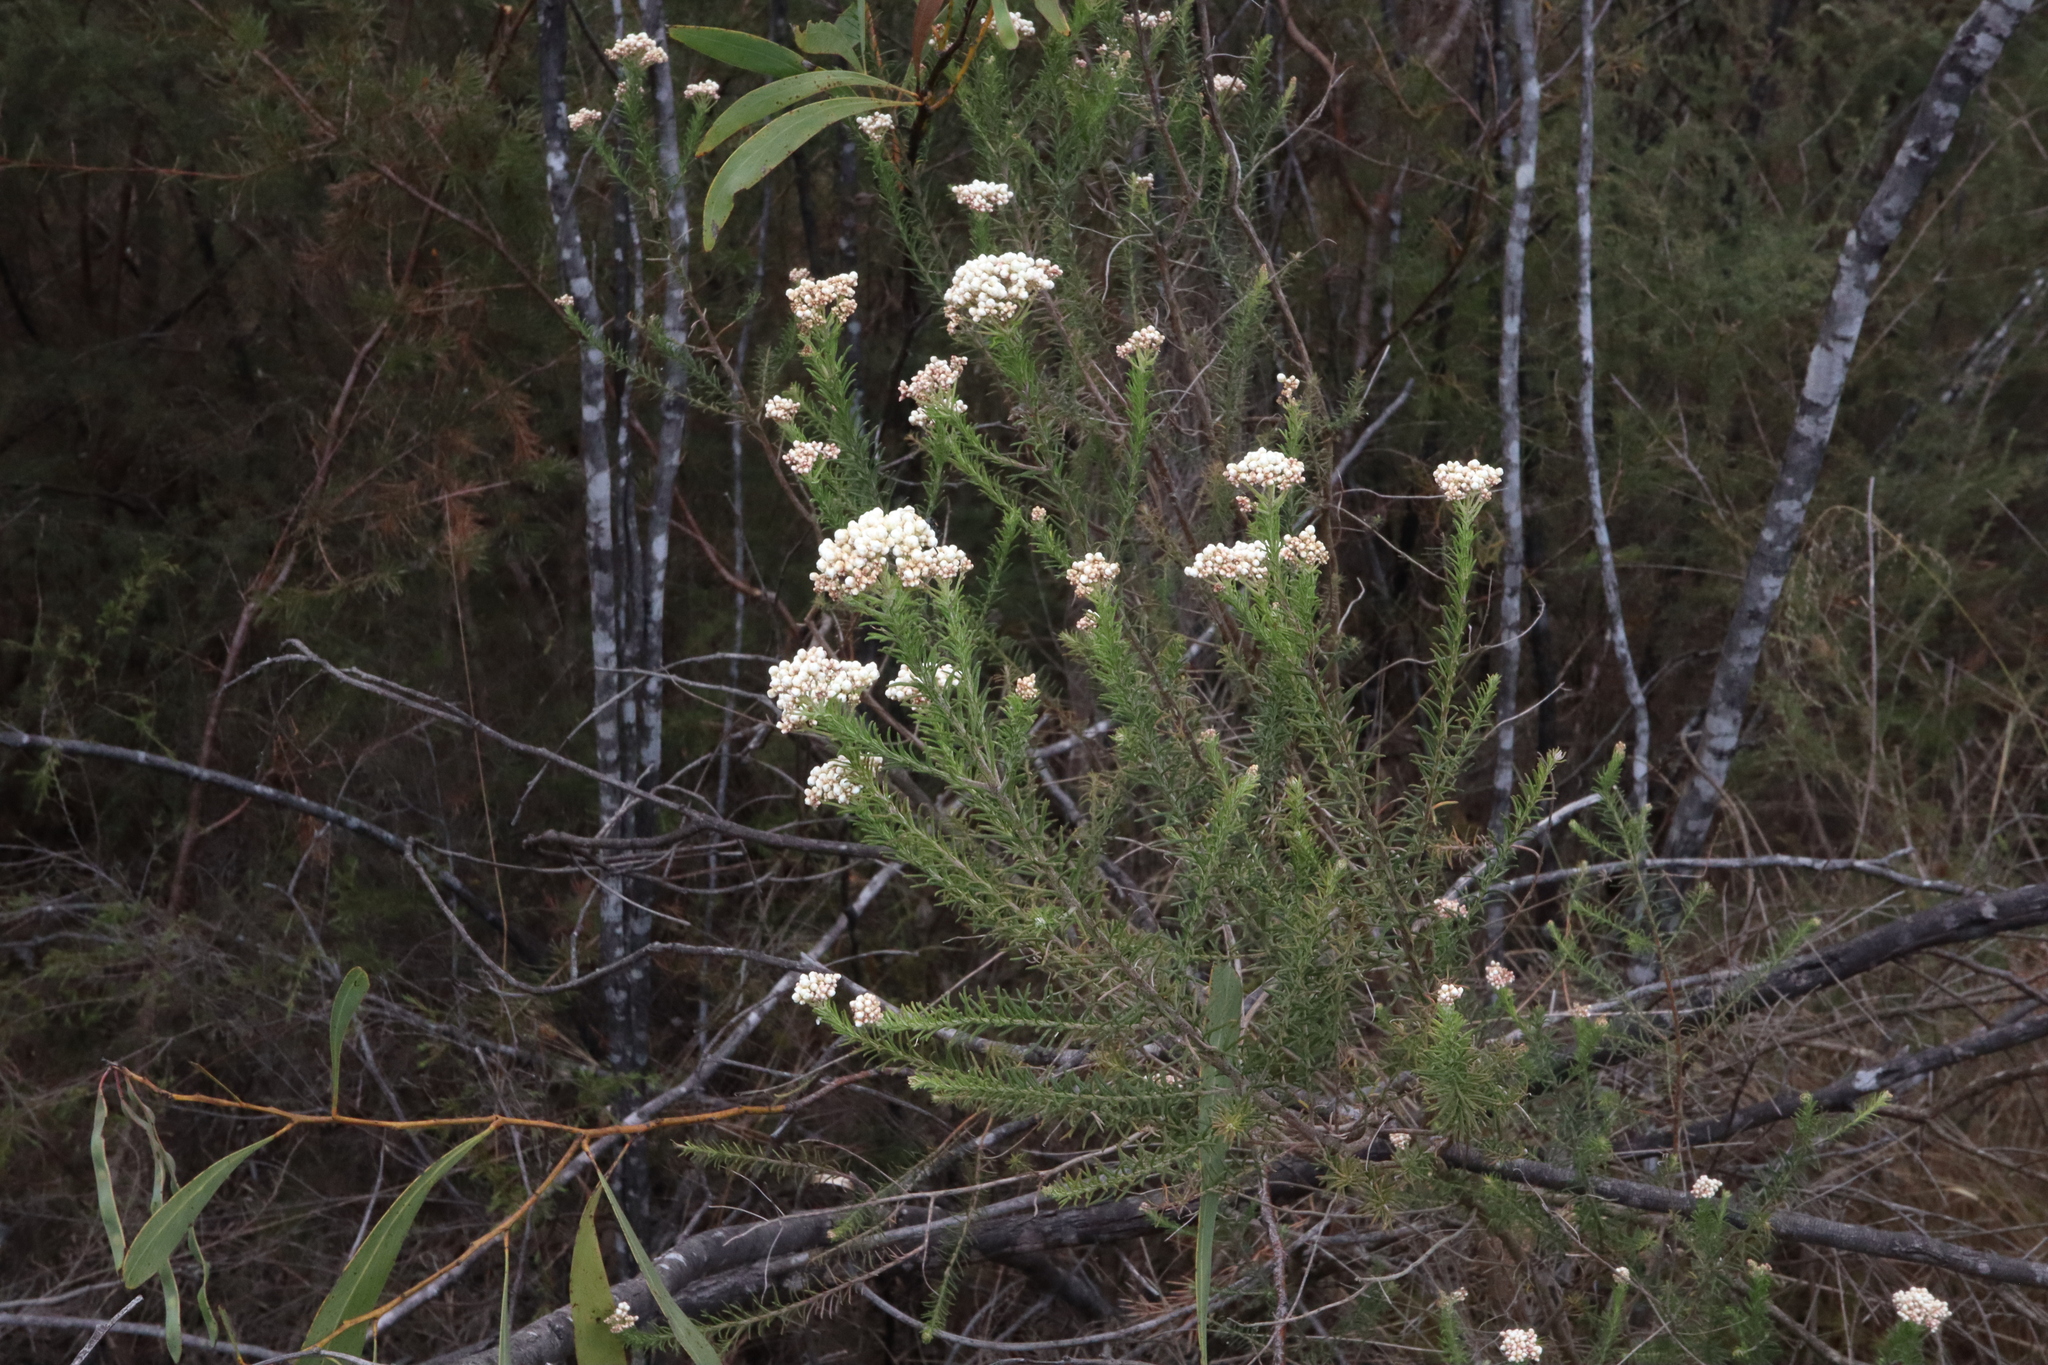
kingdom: Plantae
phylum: Tracheophyta
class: Magnoliopsida
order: Asterales
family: Asteraceae
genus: Ozothamnus
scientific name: Ozothamnus diosmifolius
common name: White-dogwood
